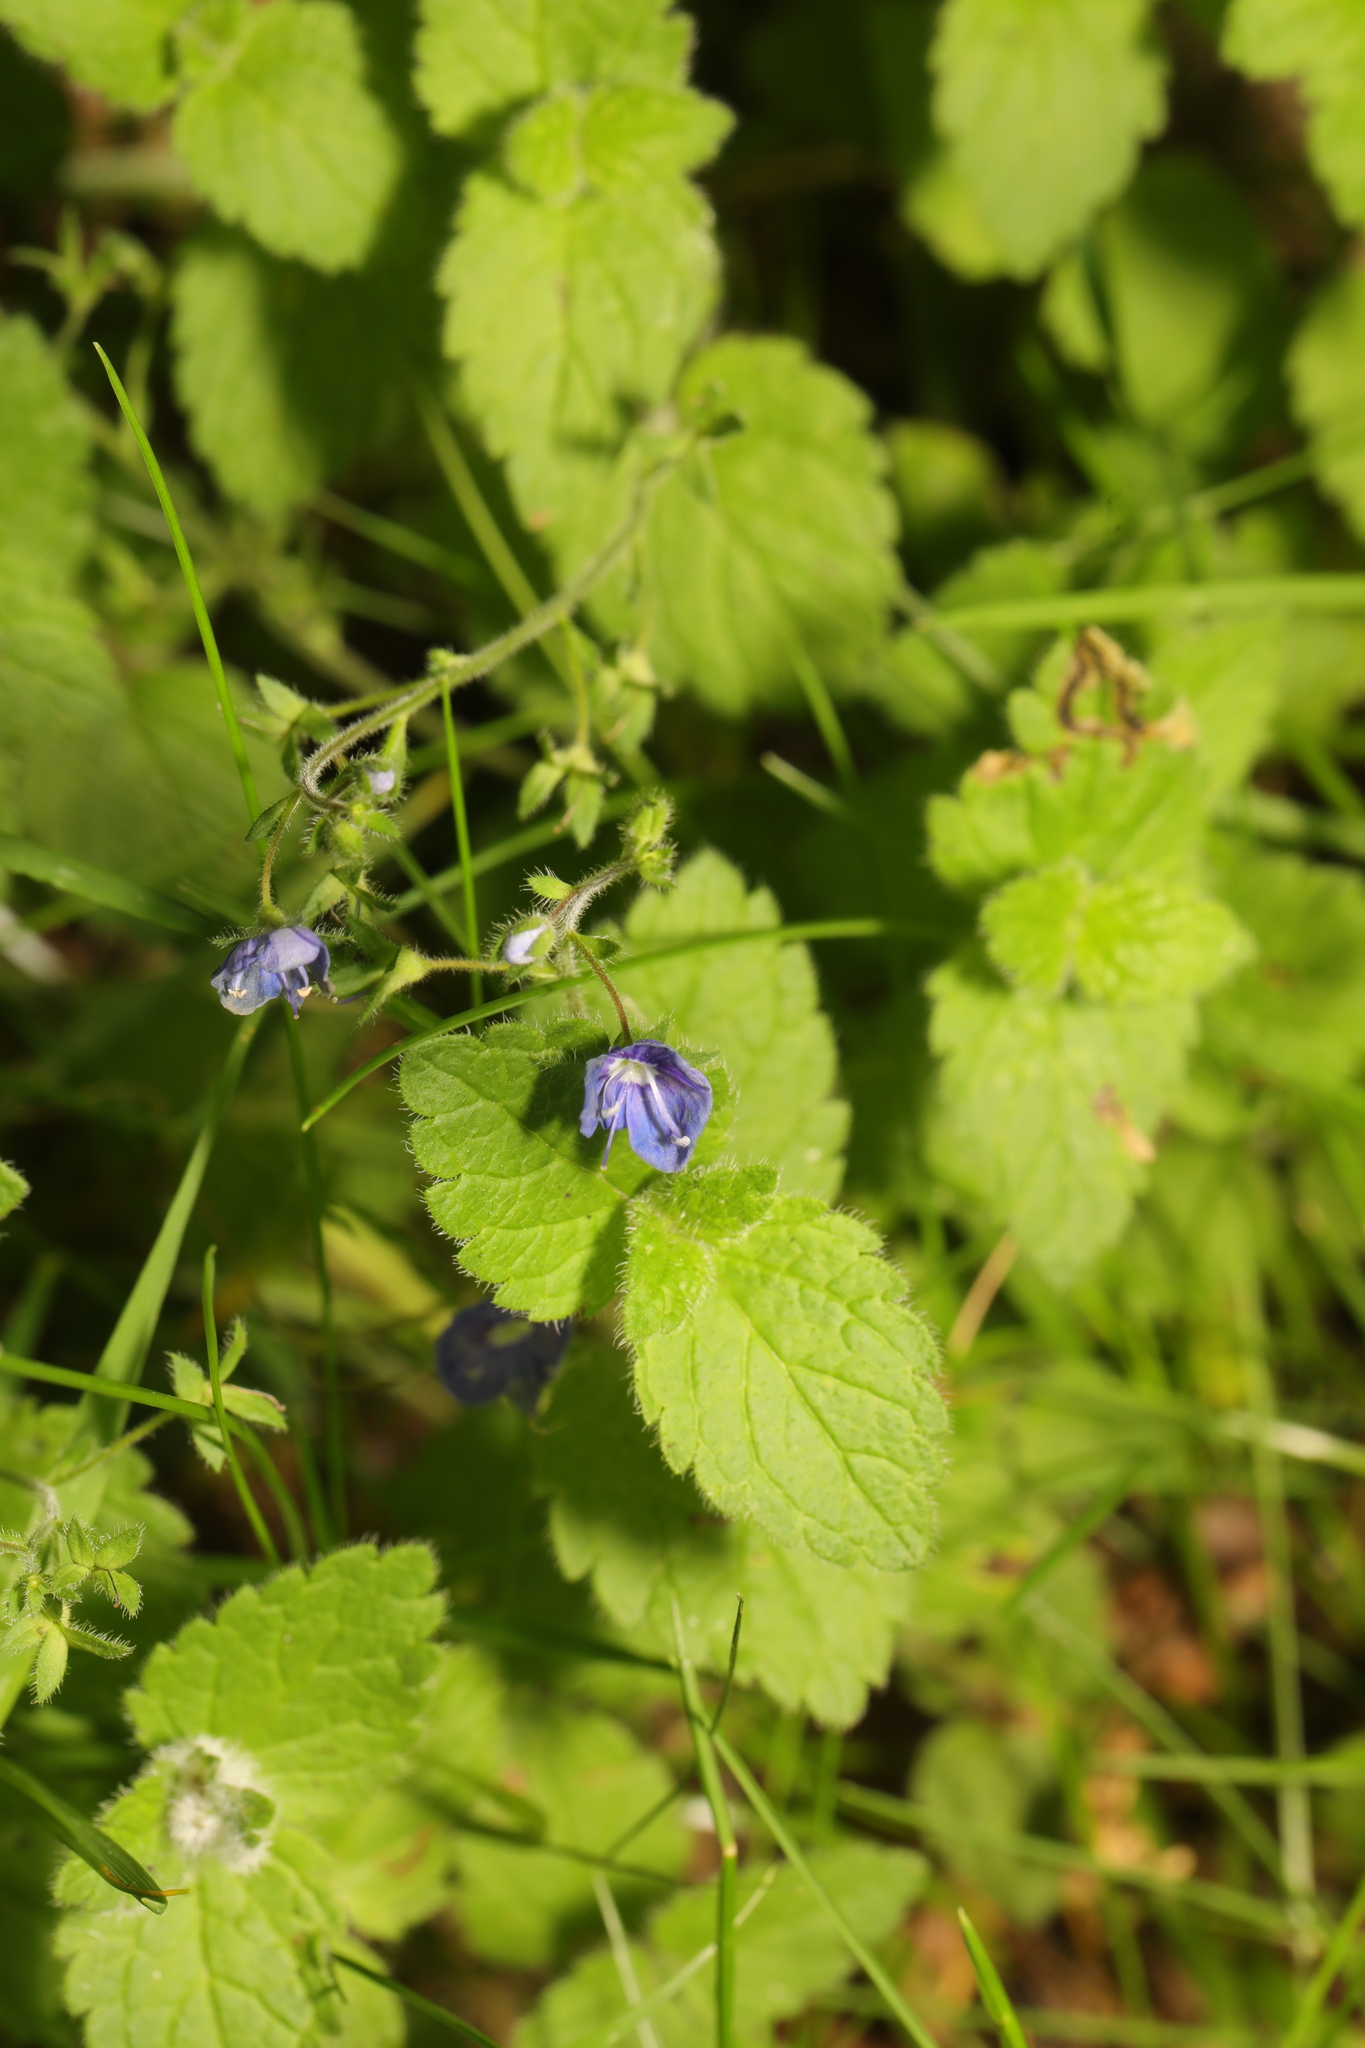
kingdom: Plantae
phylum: Tracheophyta
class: Magnoliopsida
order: Lamiales
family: Plantaginaceae
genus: Veronica
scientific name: Veronica chamaedrys
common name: Germander speedwell
